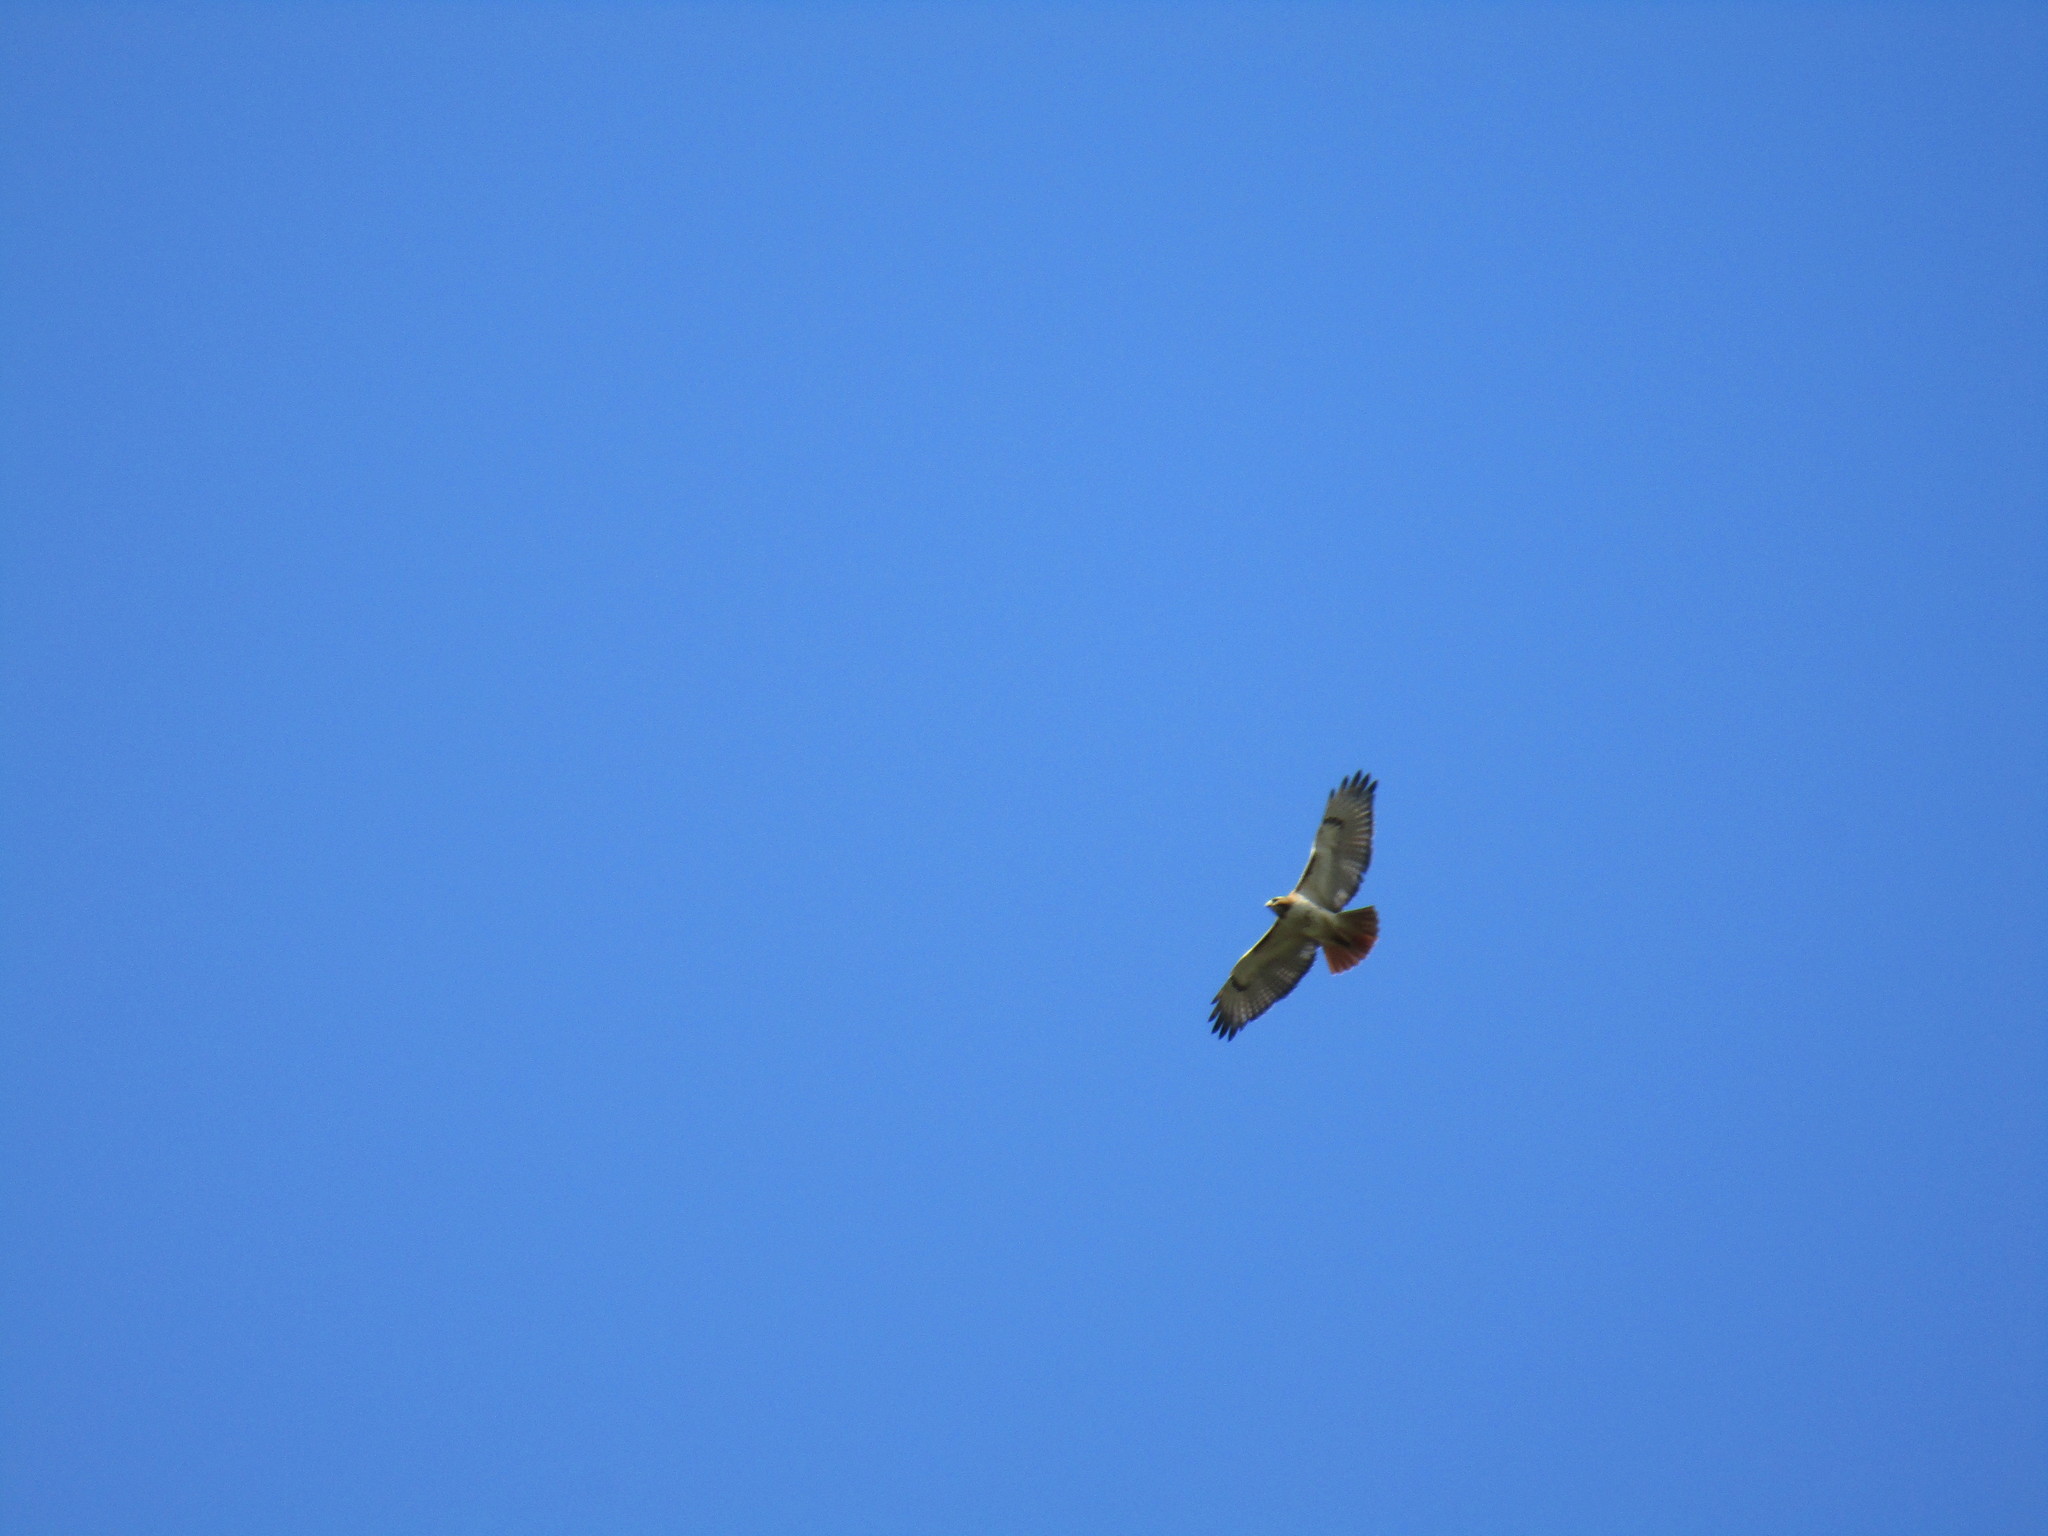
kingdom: Animalia
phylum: Chordata
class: Aves
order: Accipitriformes
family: Accipitridae
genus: Buteo
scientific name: Buteo jamaicensis
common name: Red-tailed hawk
